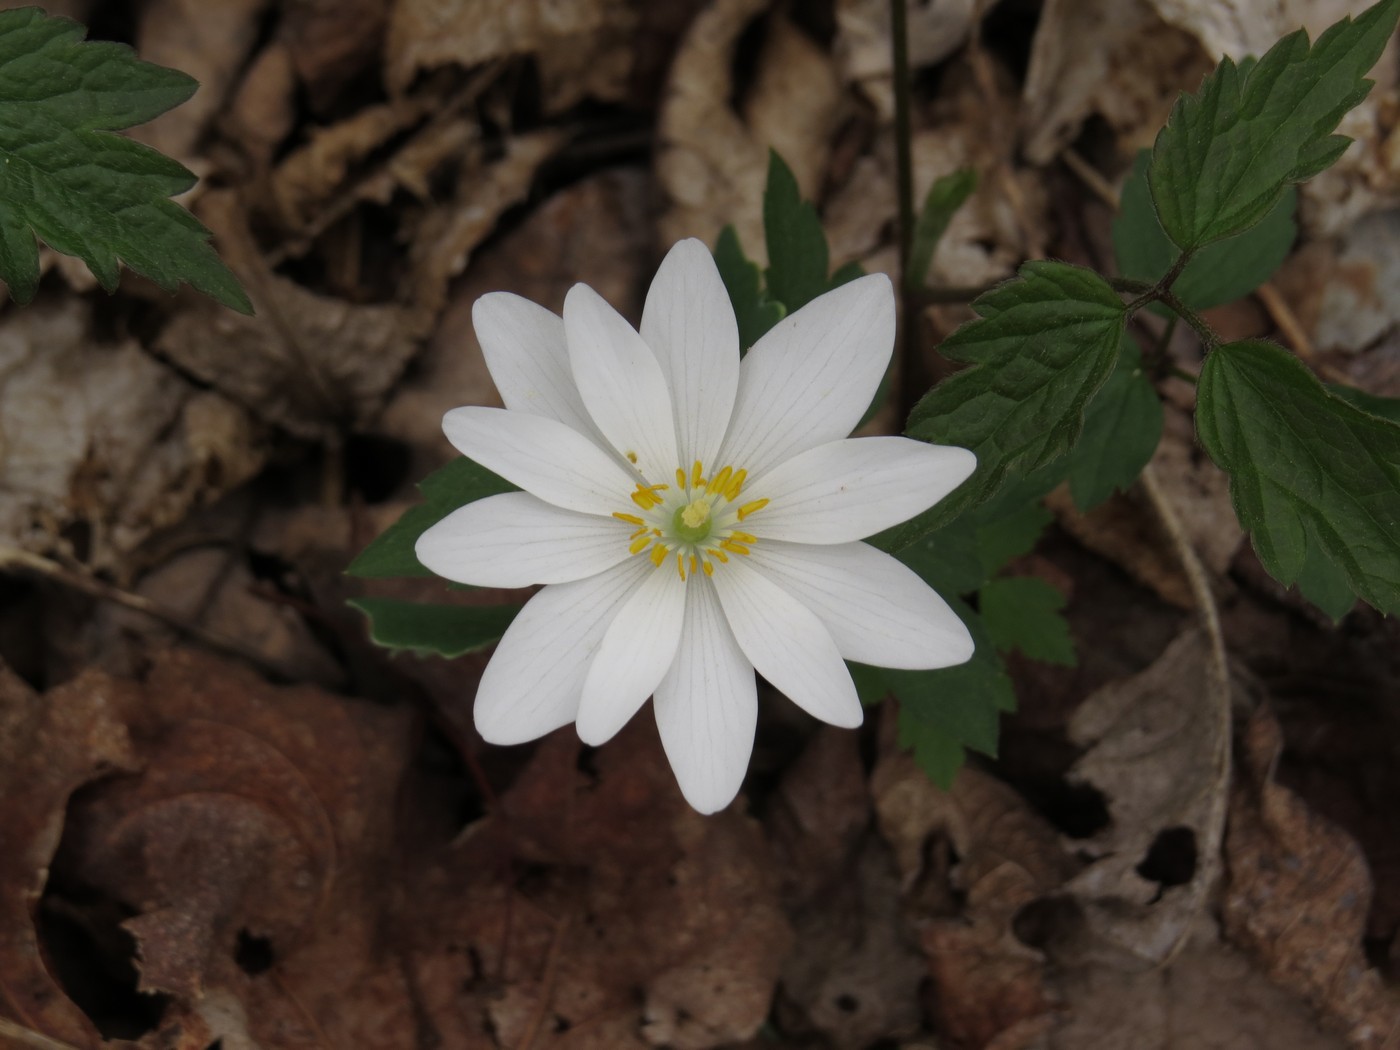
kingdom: Plantae
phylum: Tracheophyta
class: Magnoliopsida
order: Ranunculales
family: Papaveraceae
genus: Sanguinaria
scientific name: Sanguinaria canadensis
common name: Bloodroot
